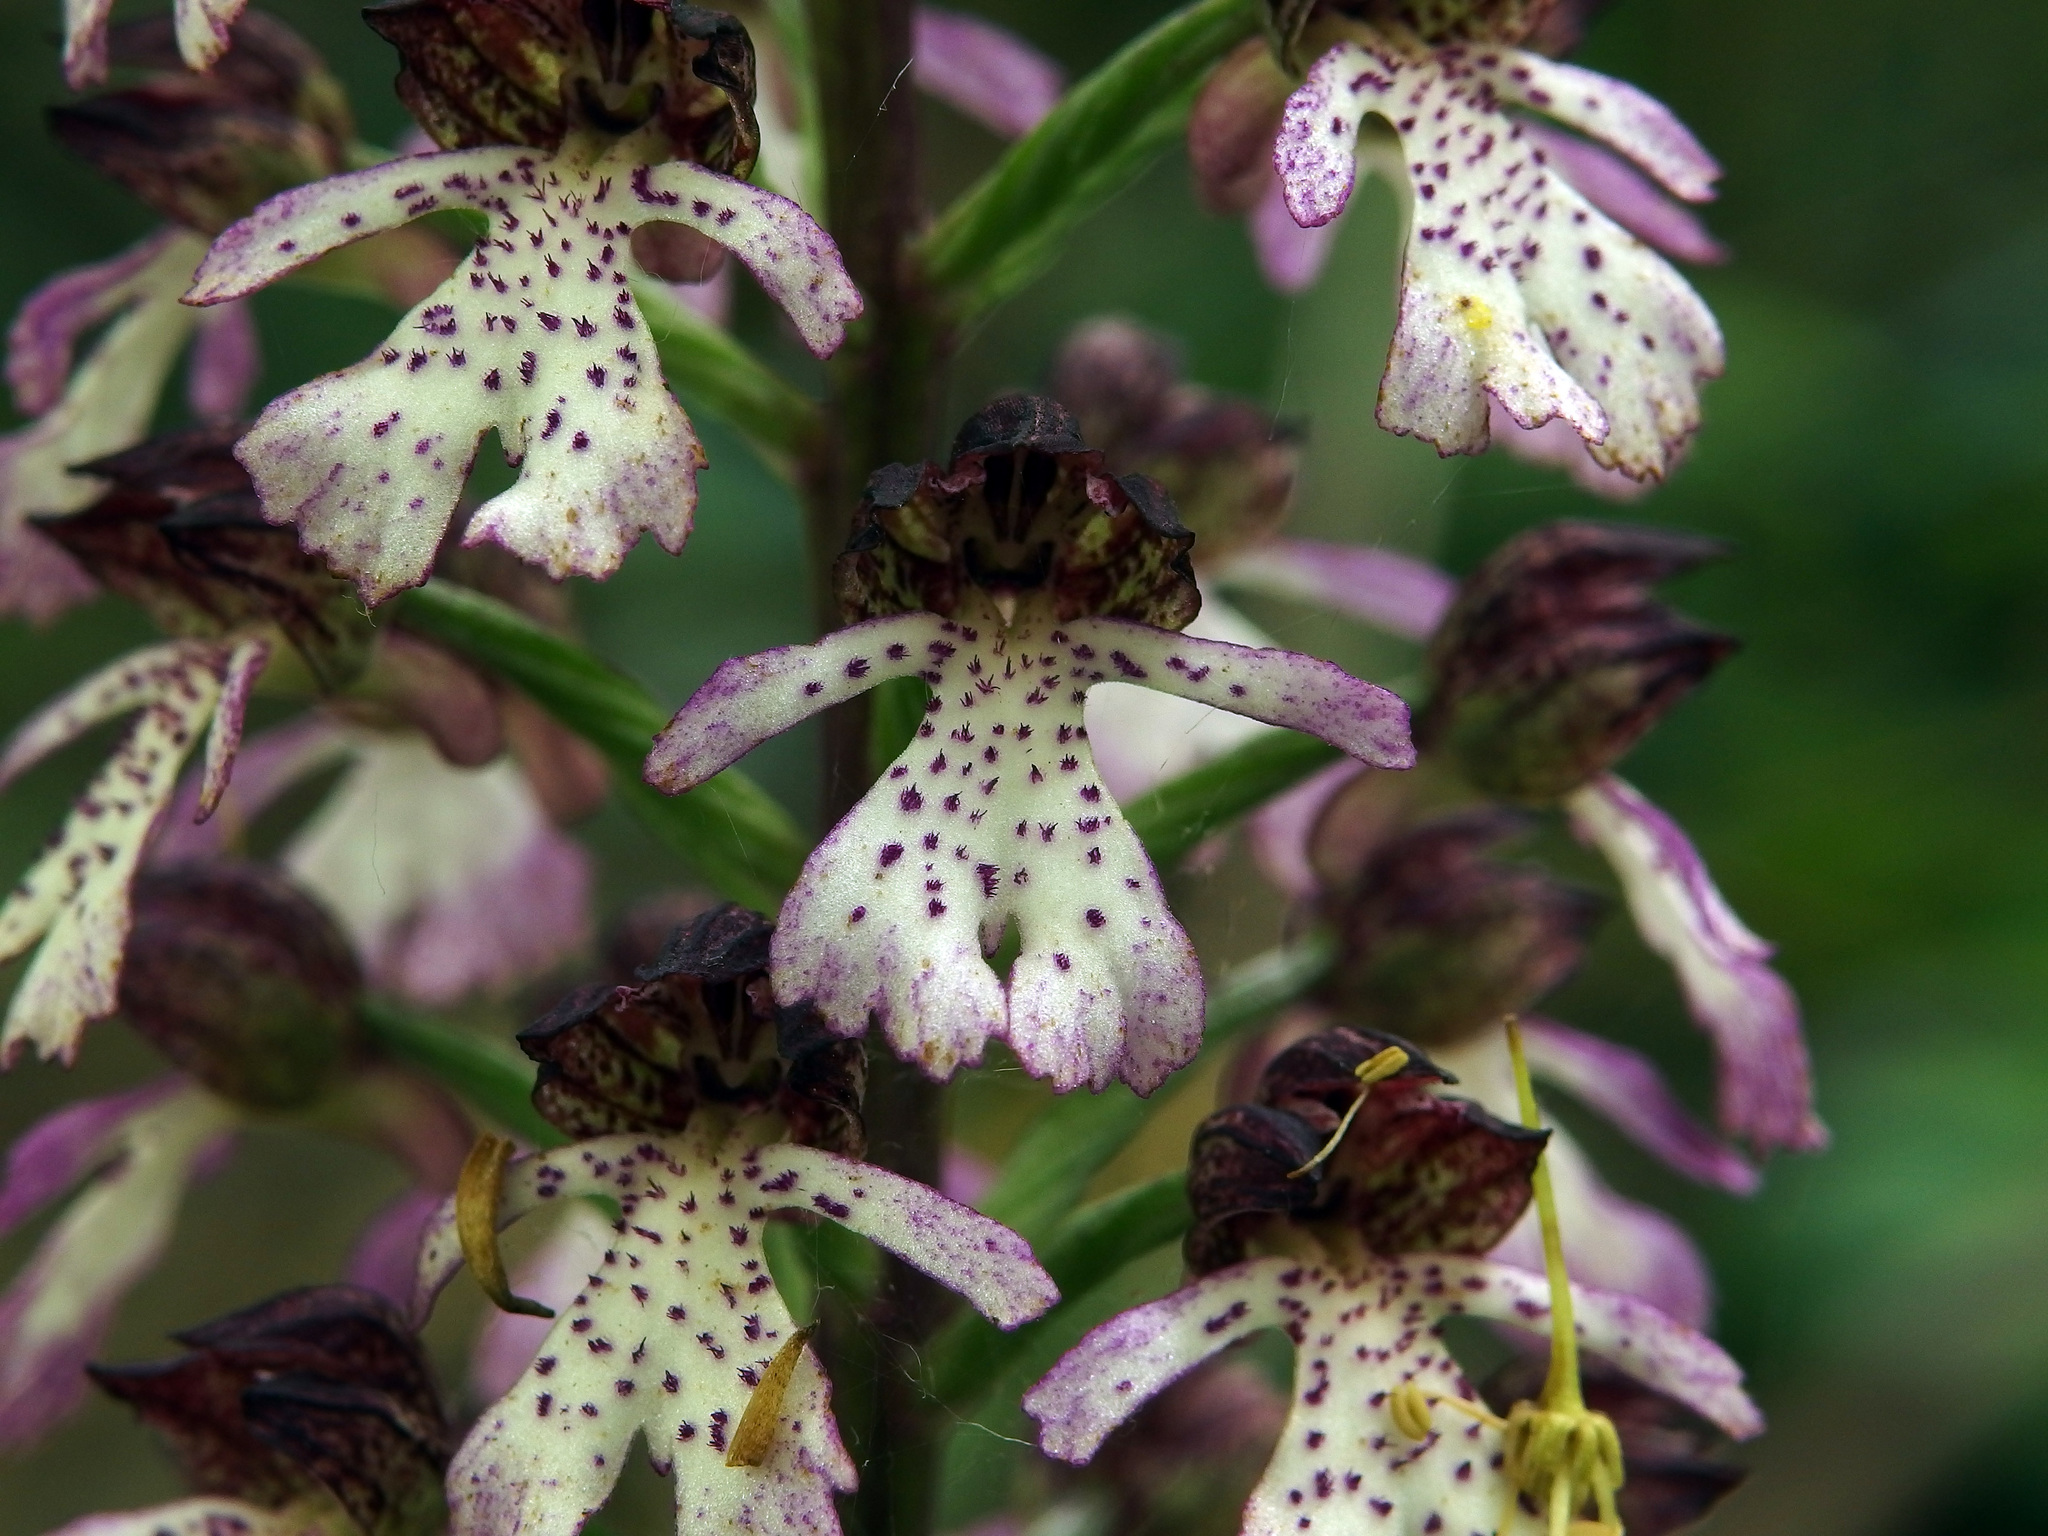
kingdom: Plantae
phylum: Tracheophyta
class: Liliopsida
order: Asparagales
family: Orchidaceae
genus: Orchis
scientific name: Orchis purpurea
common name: Lady orchid
